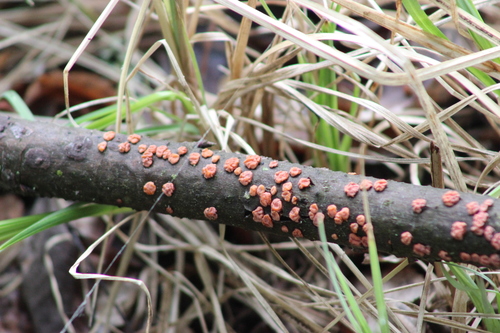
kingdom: Fungi
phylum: Basidiomycota
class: Agaricomycetes
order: Russulales
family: Peniophoraceae
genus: Peniophora
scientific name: Peniophora rufa
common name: Red tree brain fungus
